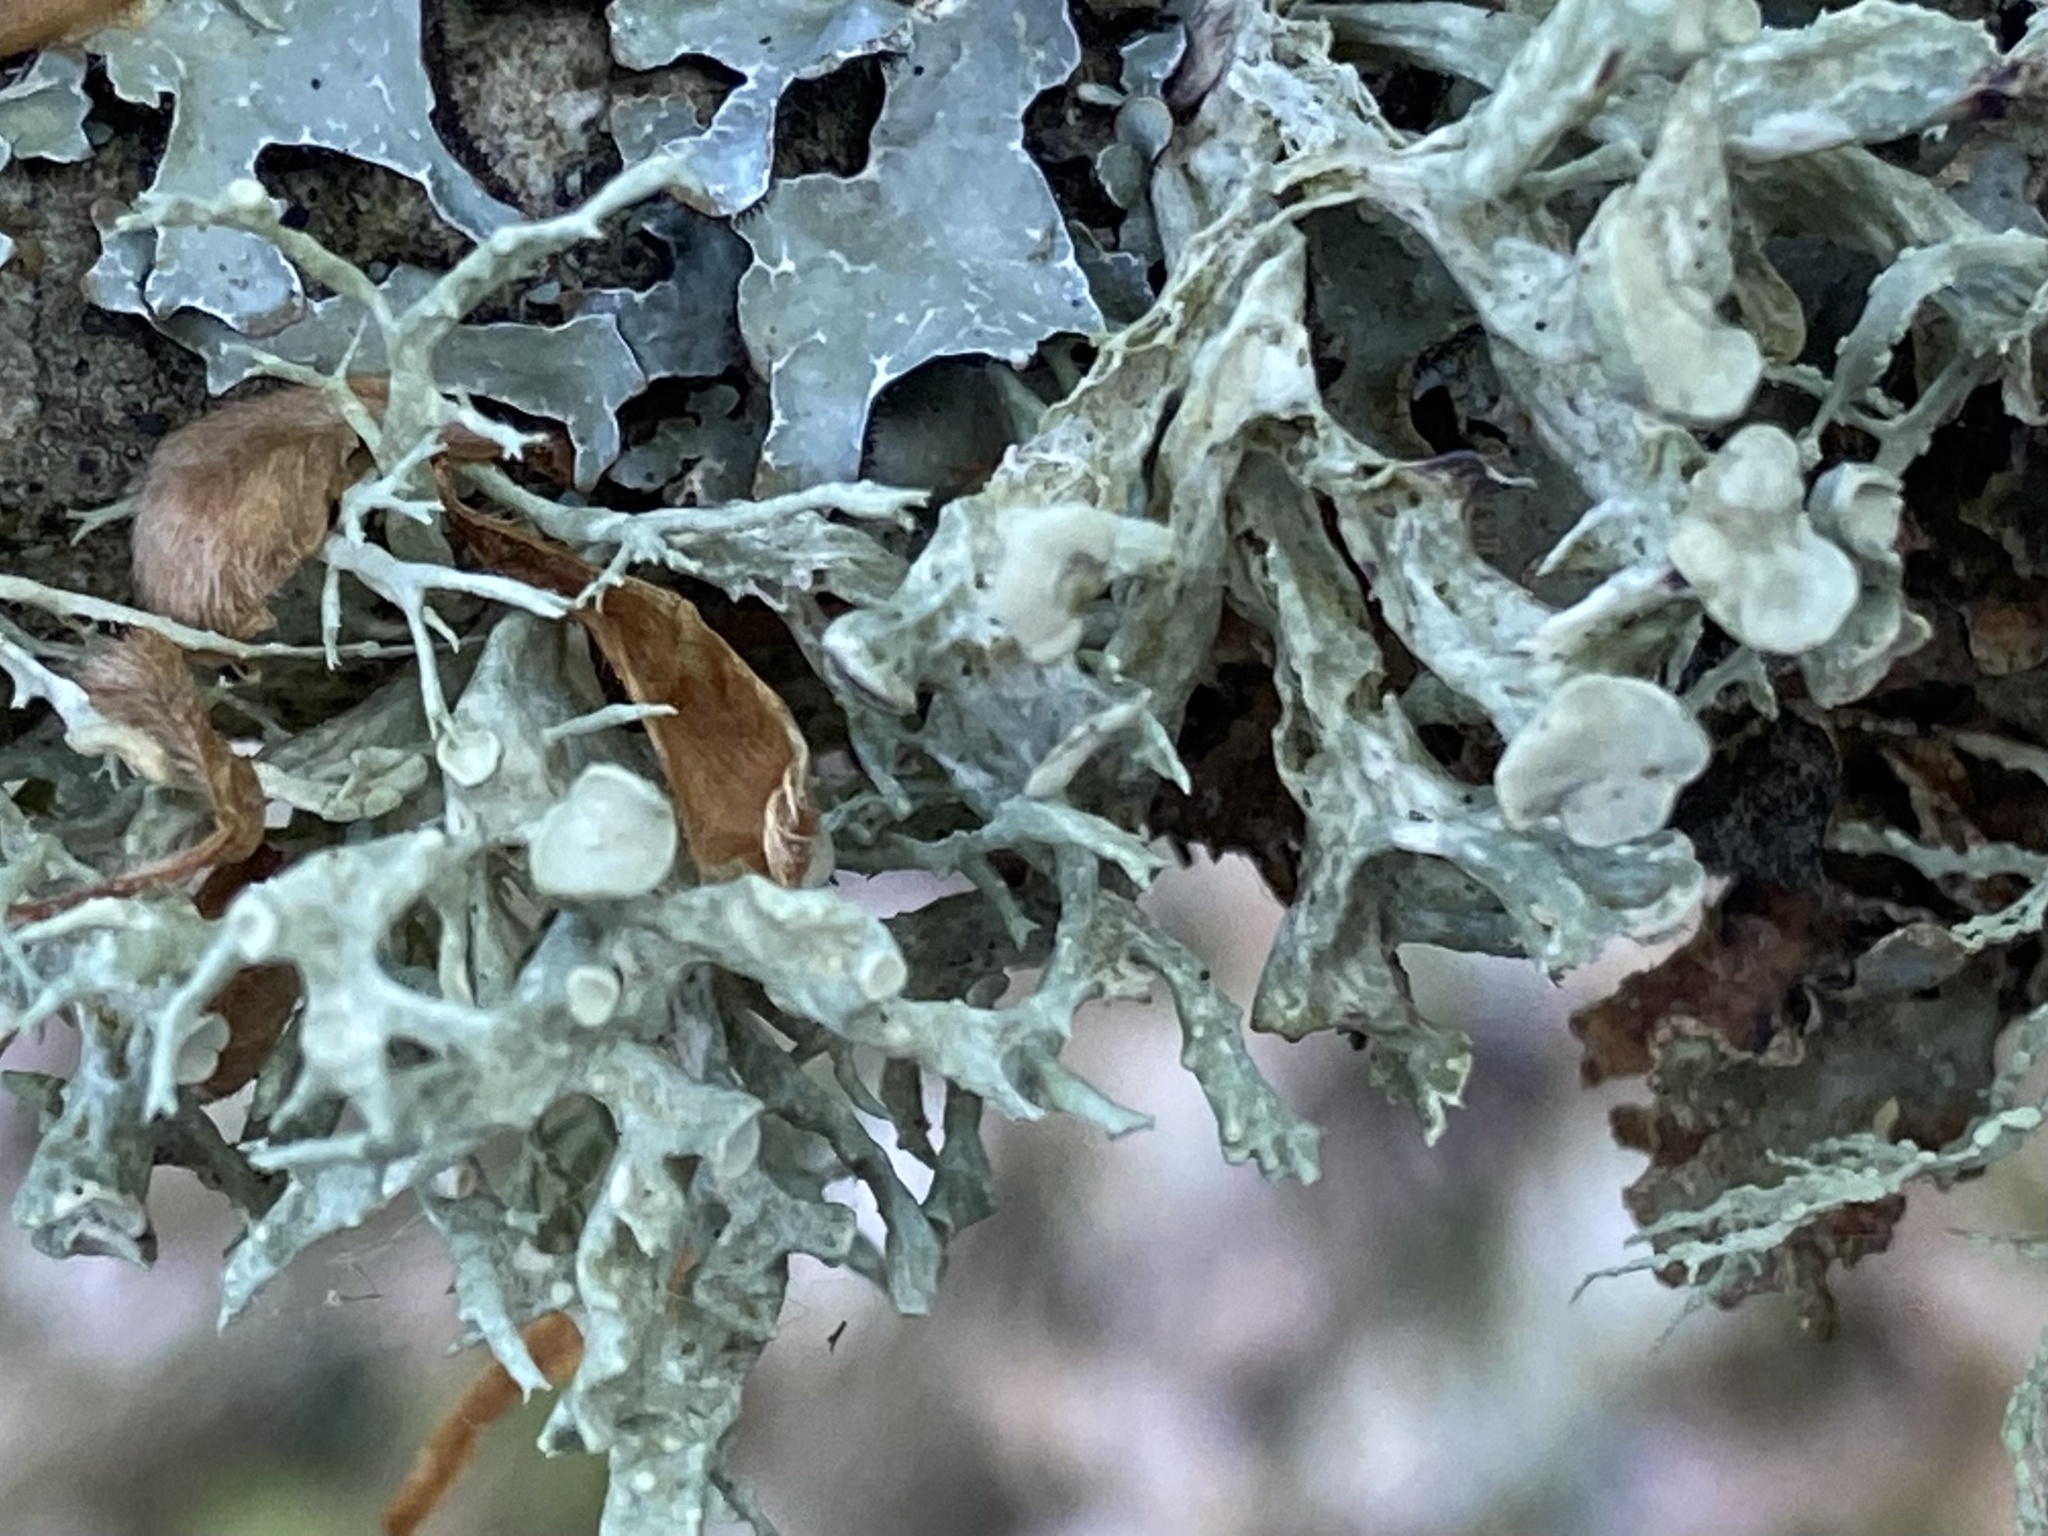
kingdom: Fungi
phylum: Ascomycota
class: Lecanoromycetes
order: Lecanorales
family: Ramalinaceae
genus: Ramalina
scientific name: Ramalina fastigiata
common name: Dotted ribbon lichen
